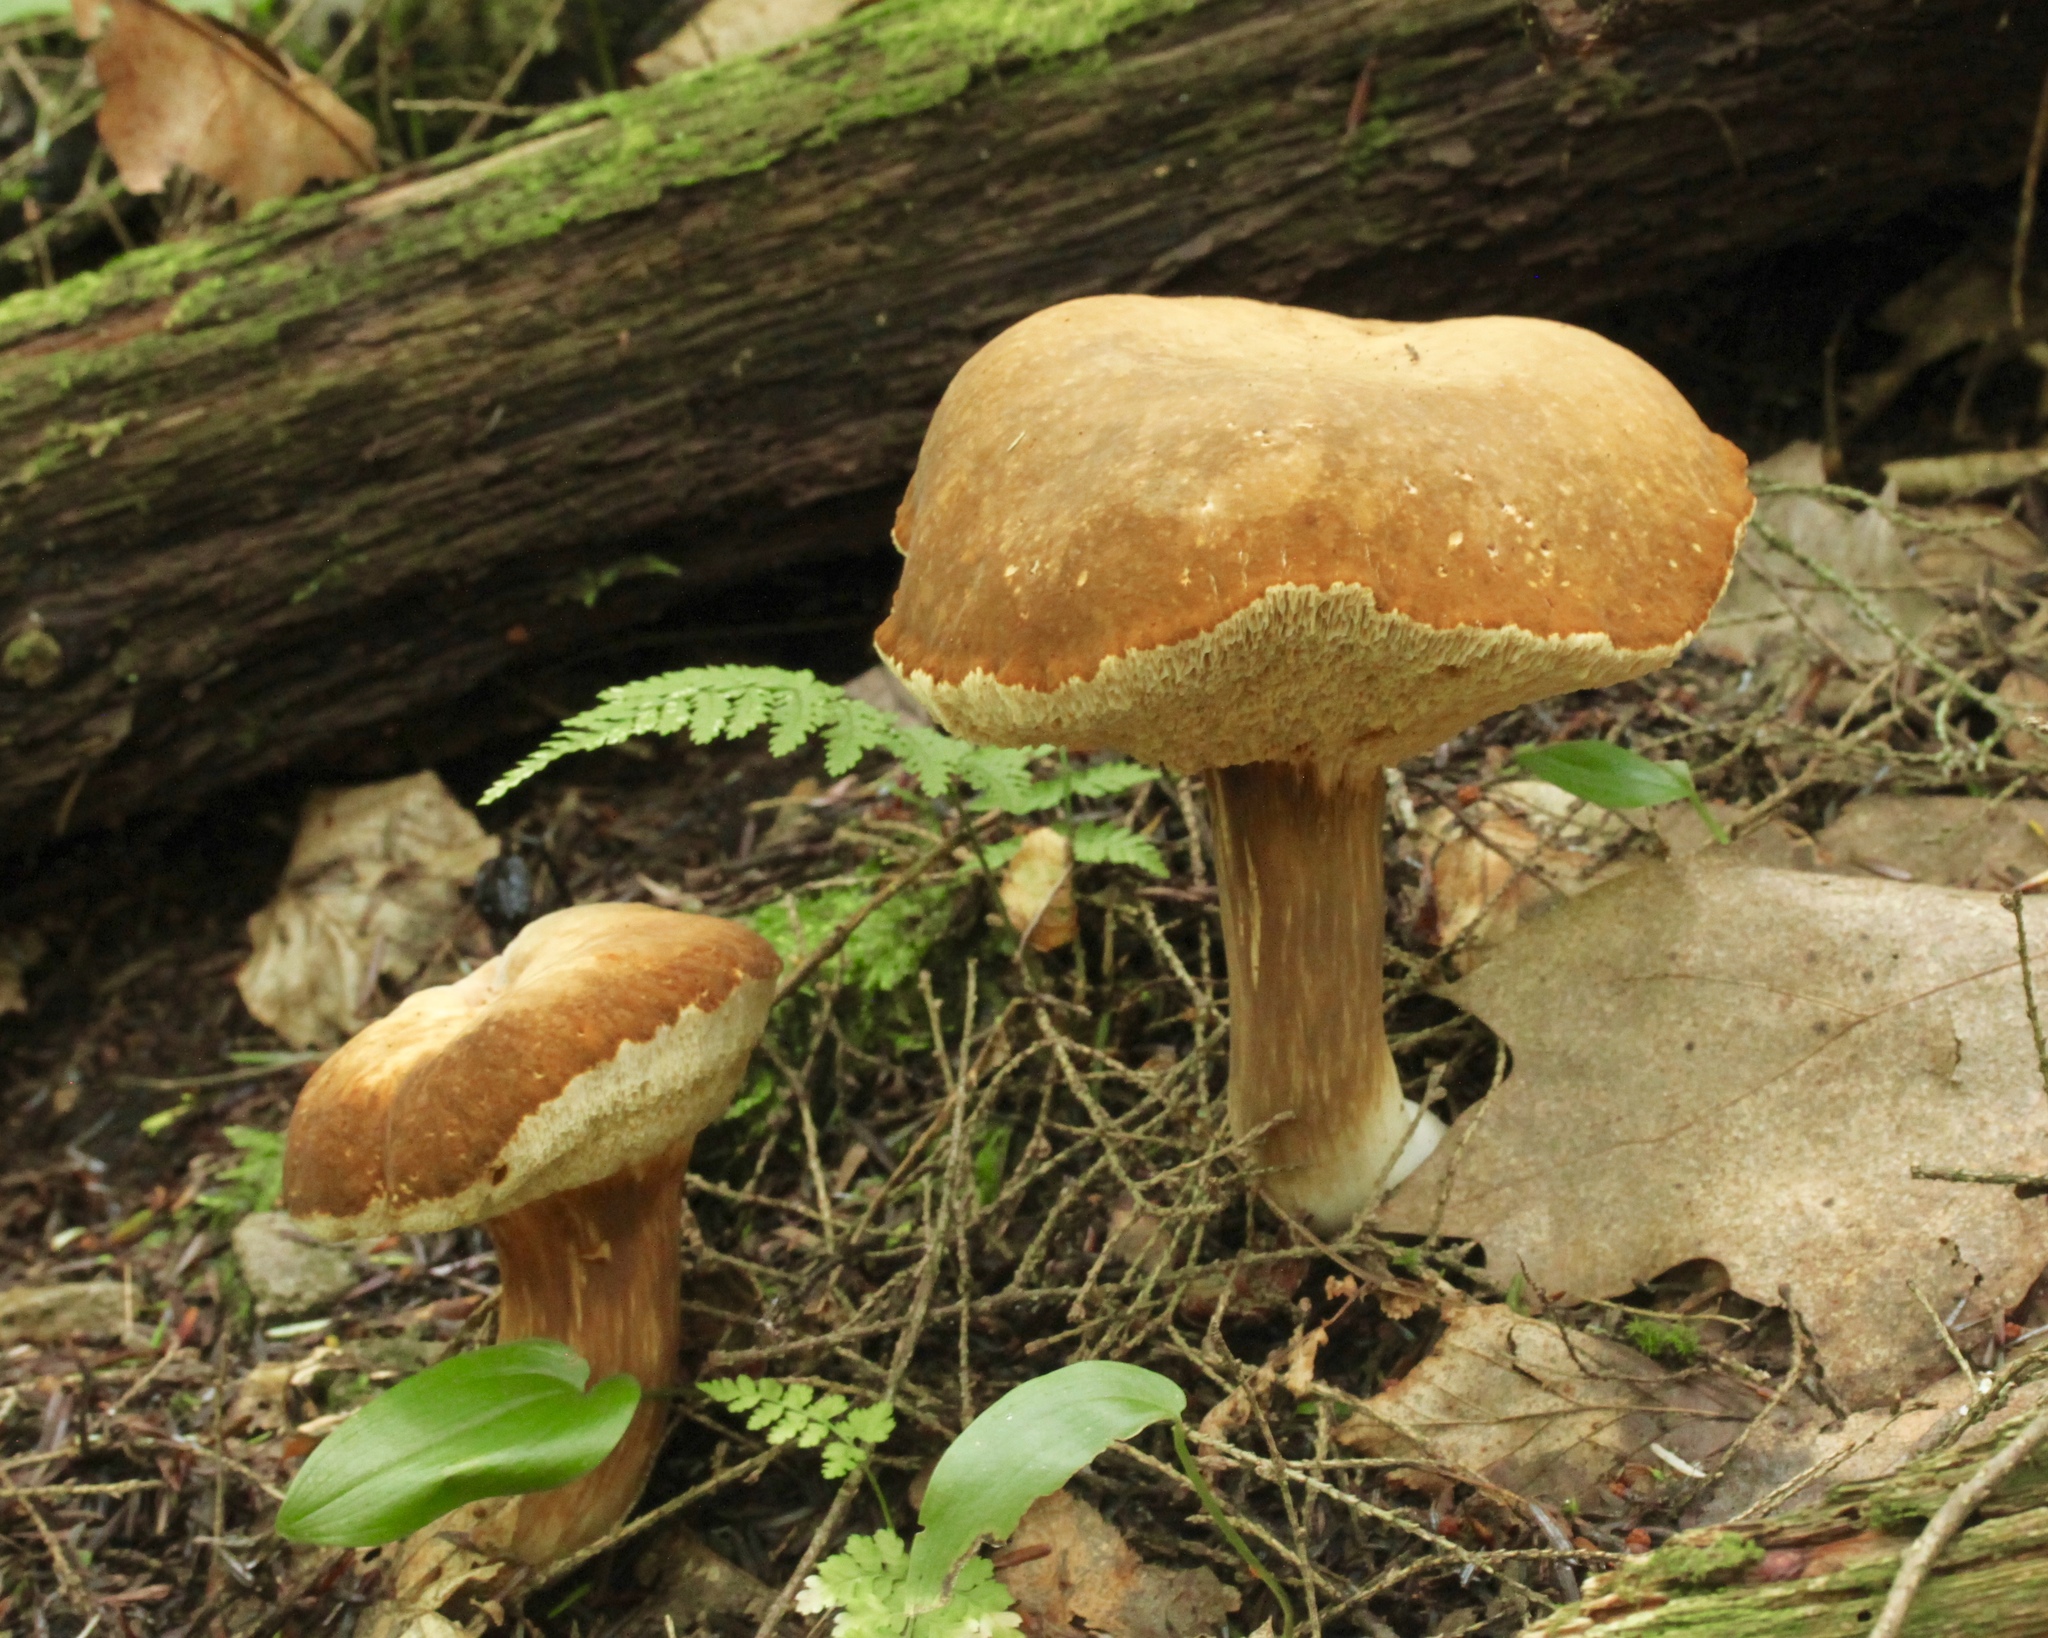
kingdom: Fungi
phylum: Basidiomycota
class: Agaricomycetes
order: Boletales
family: Boletaceae
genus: Xanthoconium
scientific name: Xanthoconium affine
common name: Spotted bolete
